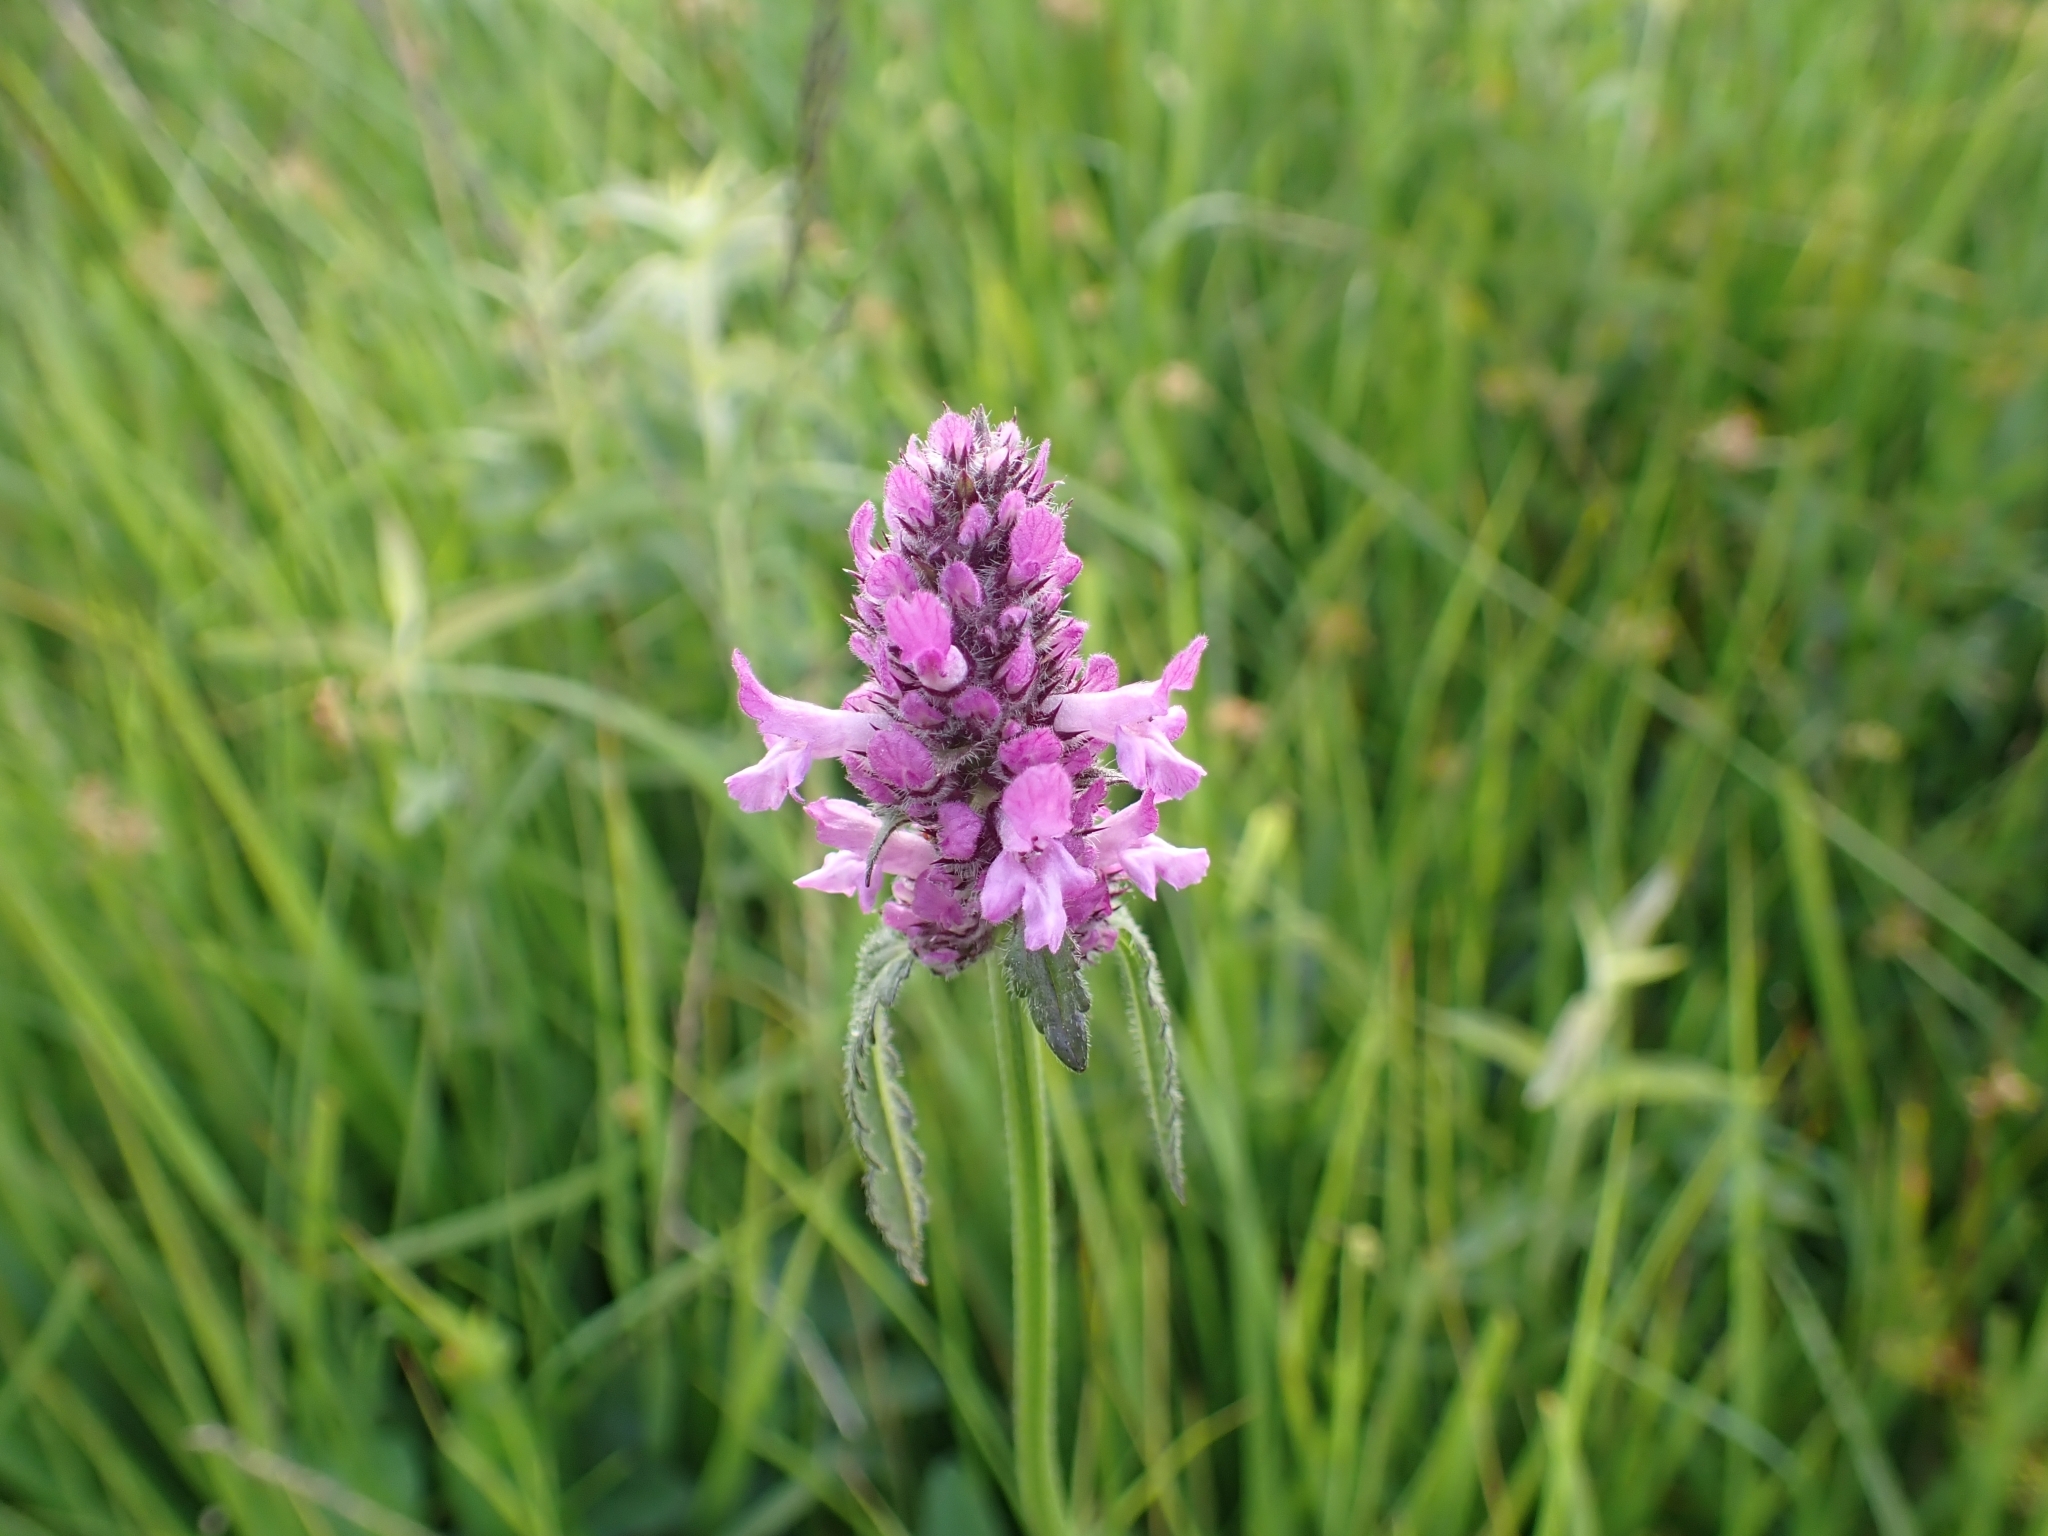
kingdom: Plantae
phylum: Tracheophyta
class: Magnoliopsida
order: Lamiales
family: Lamiaceae
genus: Betonica
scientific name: Betonica officinalis
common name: Bishop's-wort
